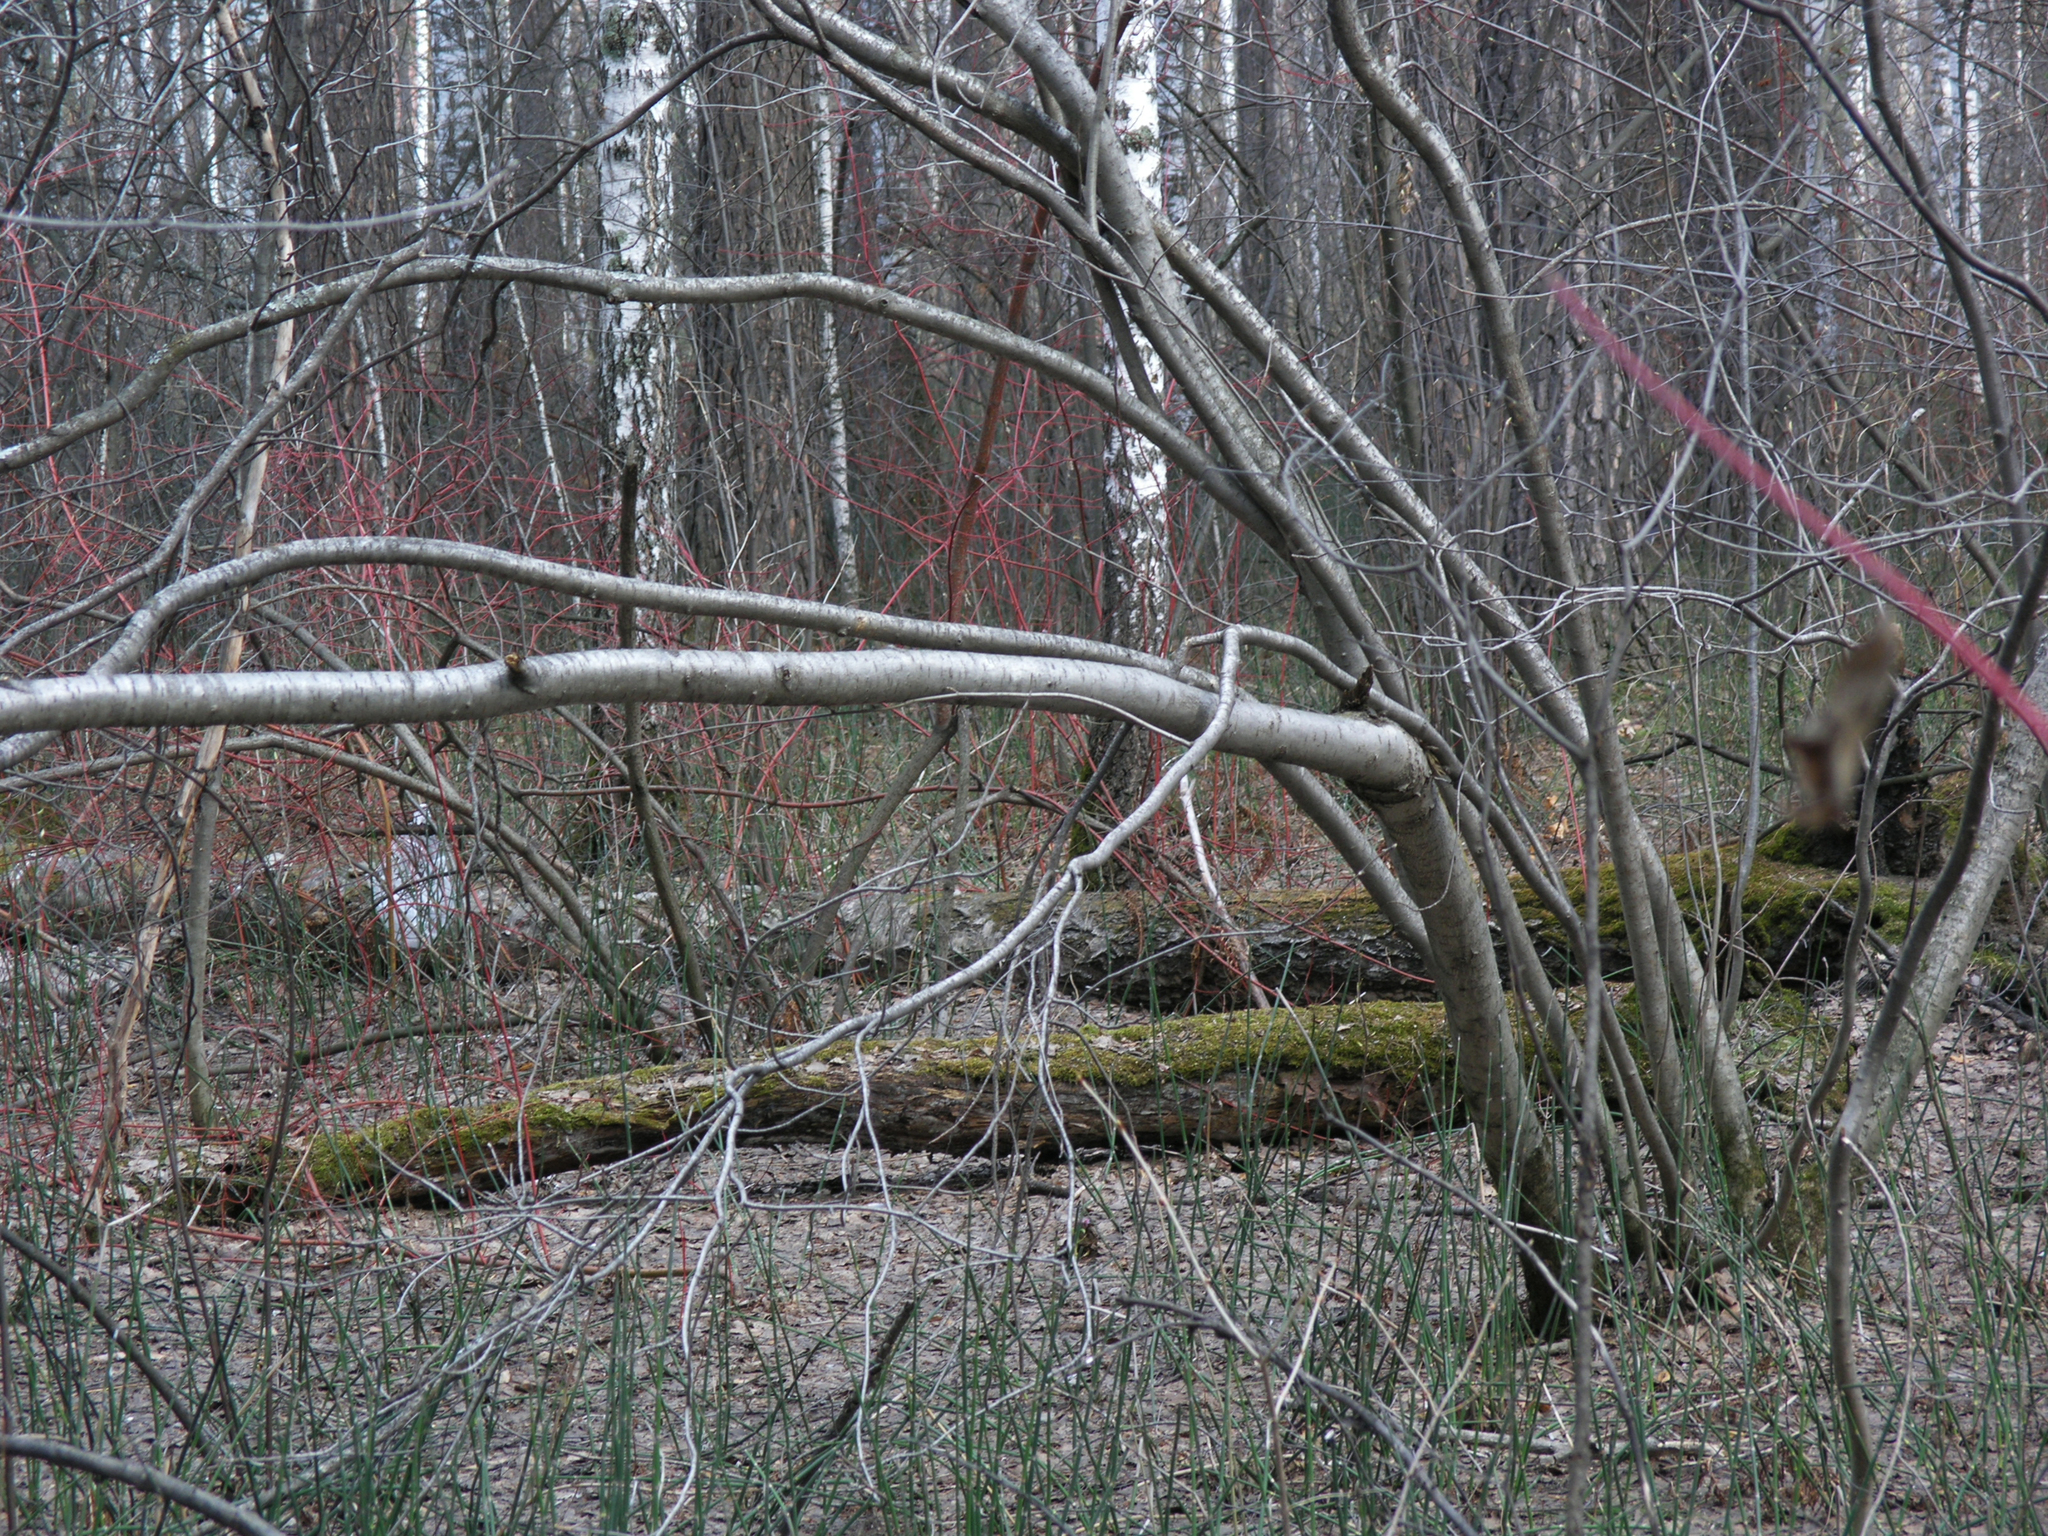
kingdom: Plantae
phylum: Tracheophyta
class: Magnoliopsida
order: Rosales
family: Rosaceae
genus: Prunus
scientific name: Prunus padus
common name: Bird cherry
